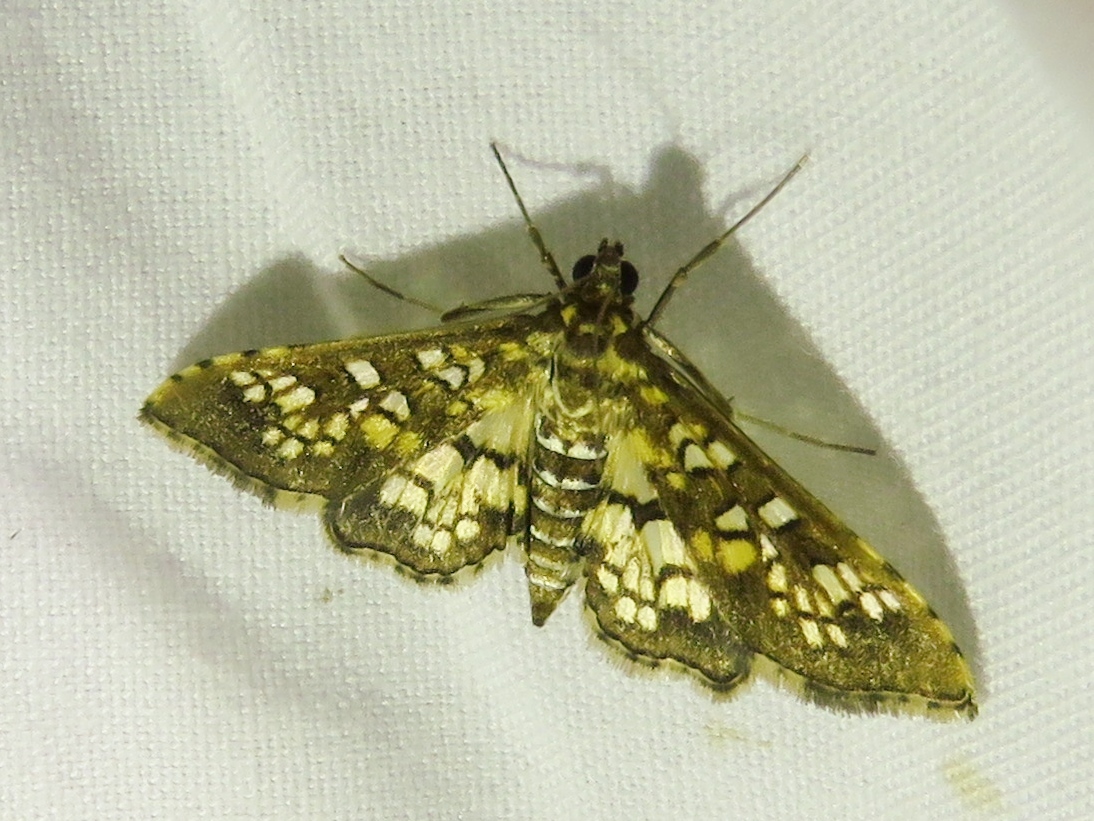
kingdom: Animalia
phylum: Arthropoda
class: Insecta
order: Lepidoptera
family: Crambidae
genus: Samea
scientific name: Samea ecclesialis
